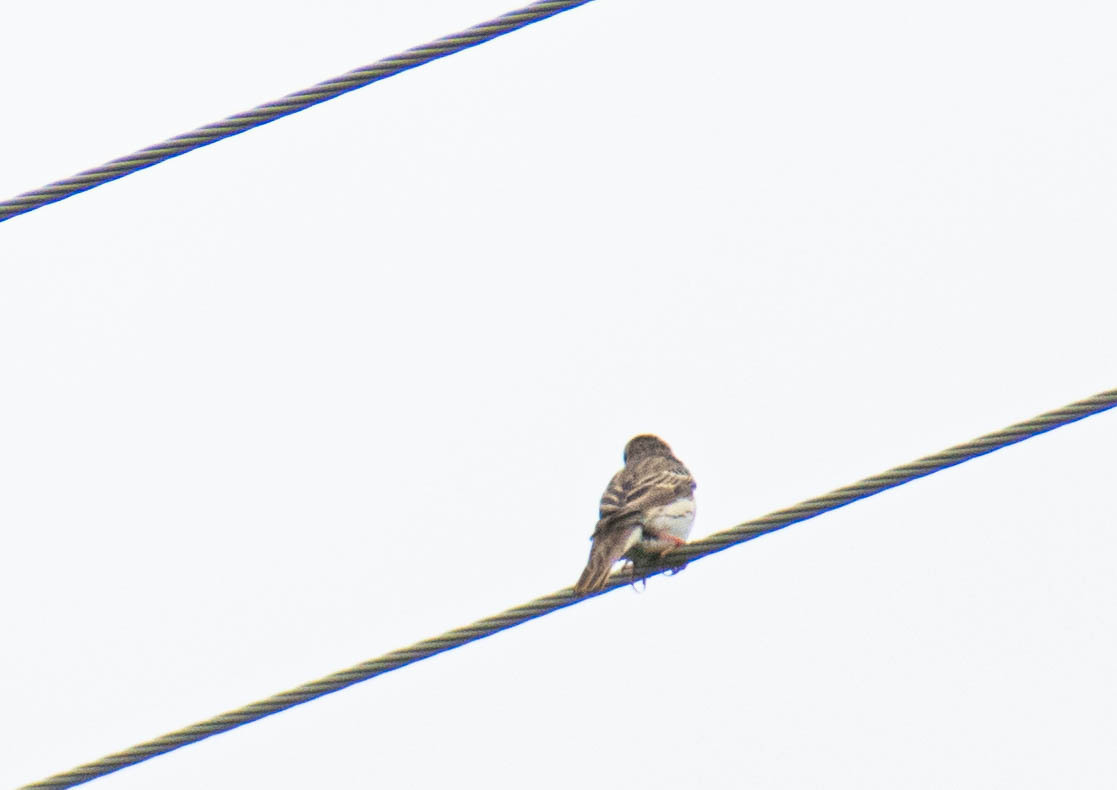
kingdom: Animalia
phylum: Chordata
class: Aves
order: Passeriformes
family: Motacillidae
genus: Anthus
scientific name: Anthus trivialis
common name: Tree pipit
